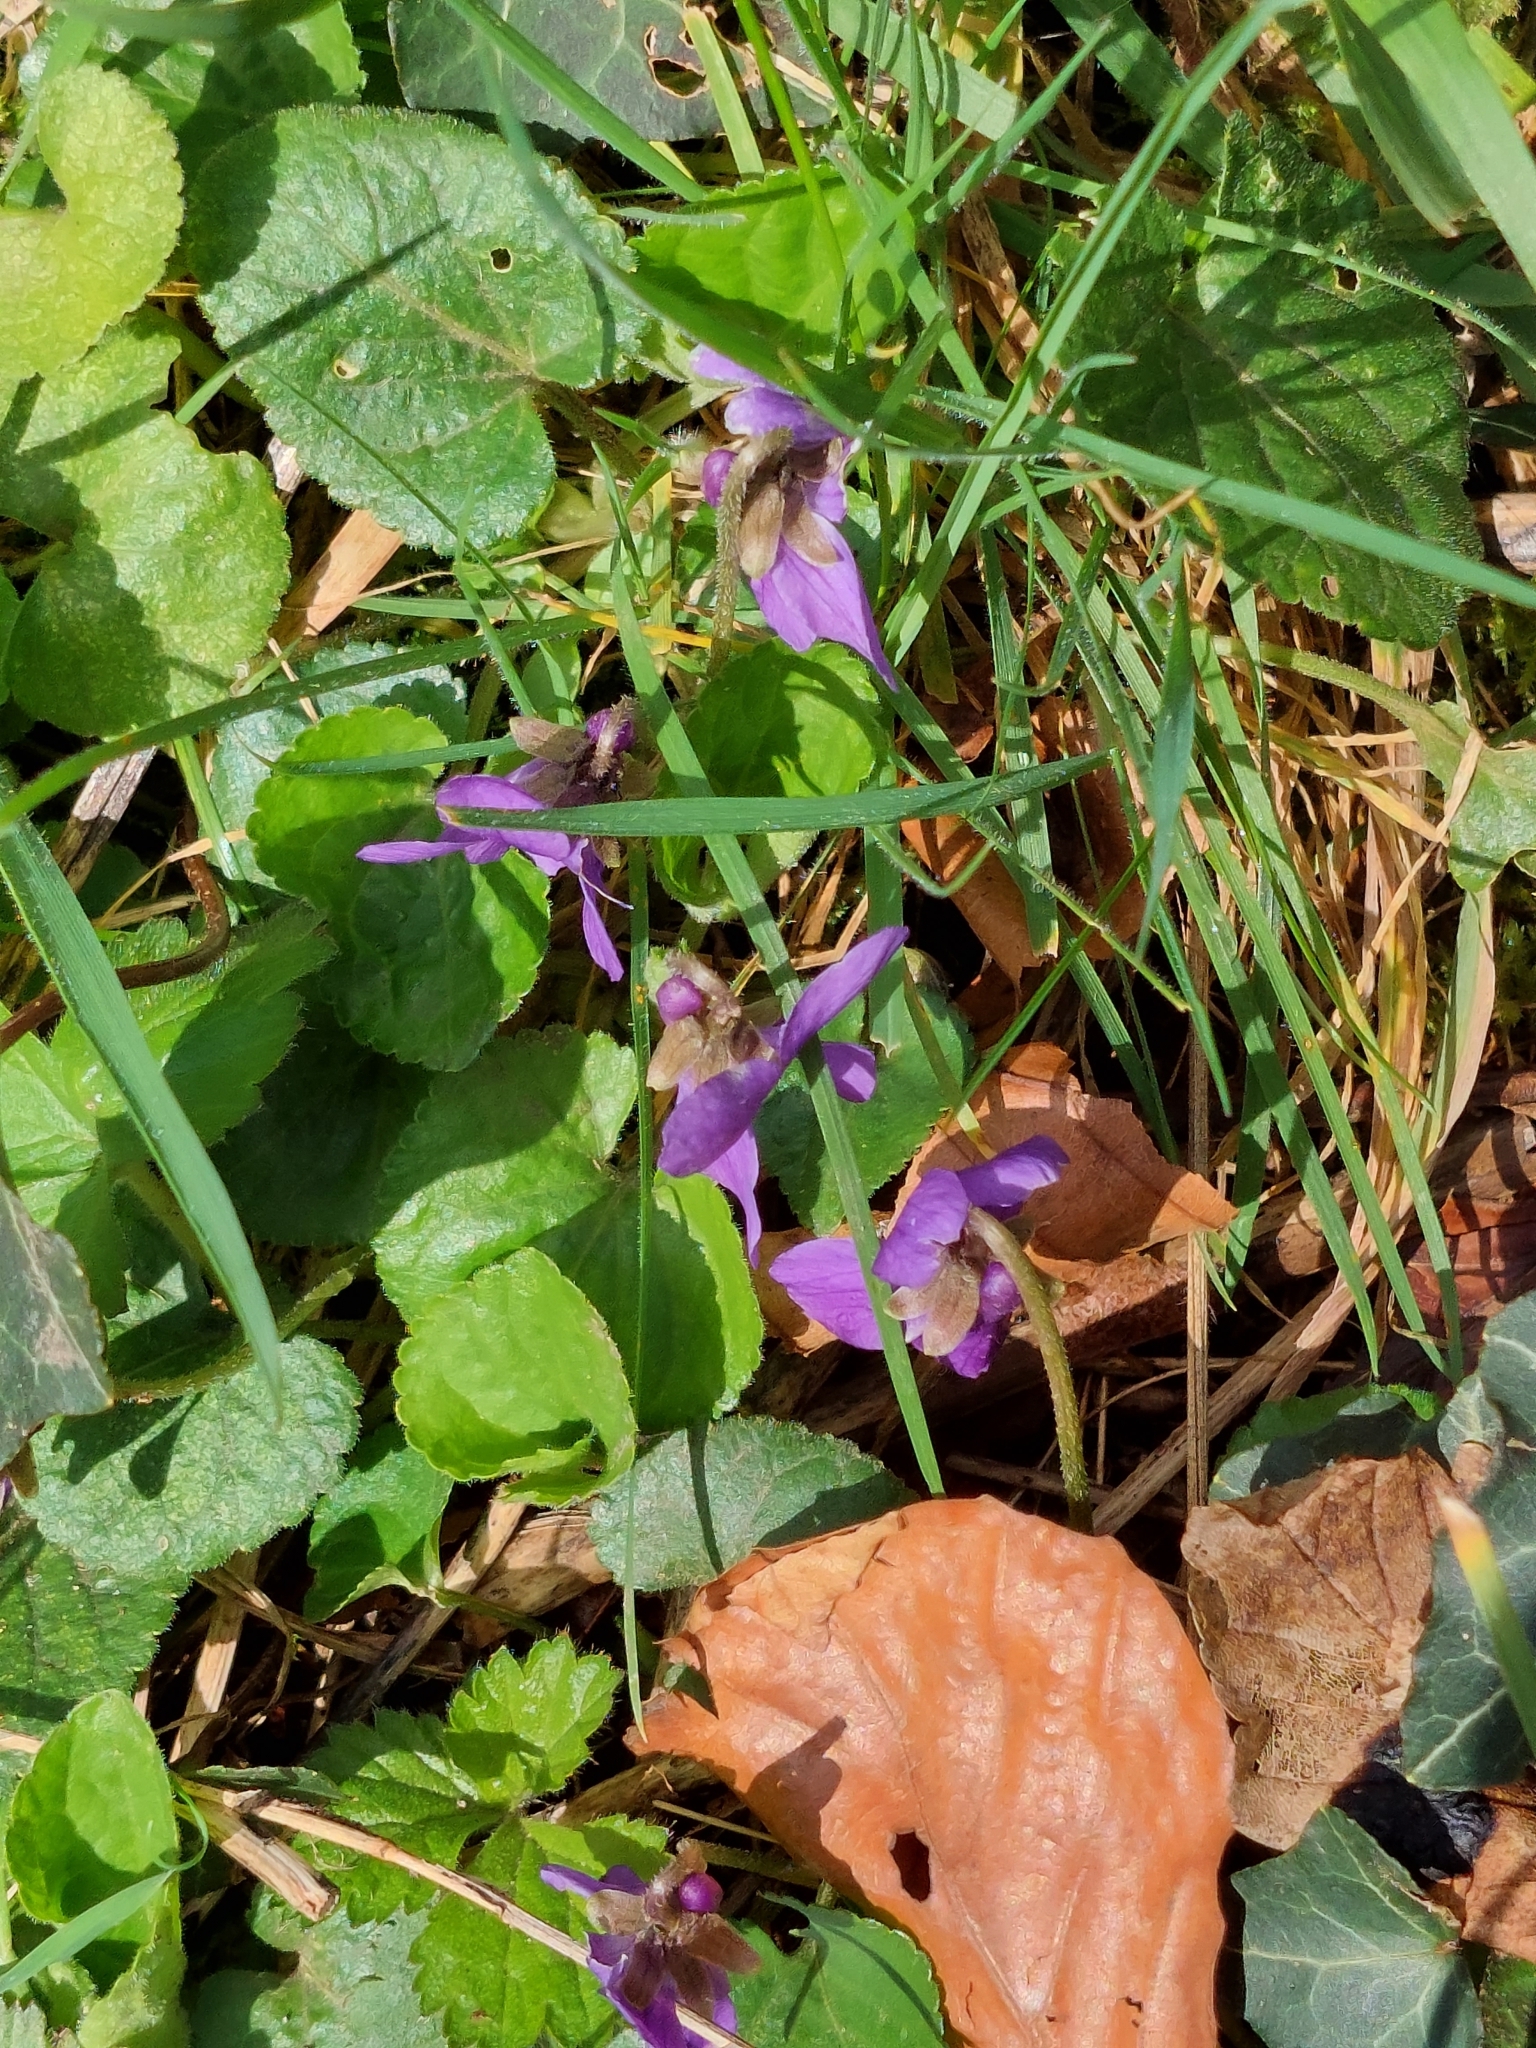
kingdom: Plantae
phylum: Tracheophyta
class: Magnoliopsida
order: Malpighiales
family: Violaceae
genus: Viola
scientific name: Viola odorata
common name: Sweet violet
